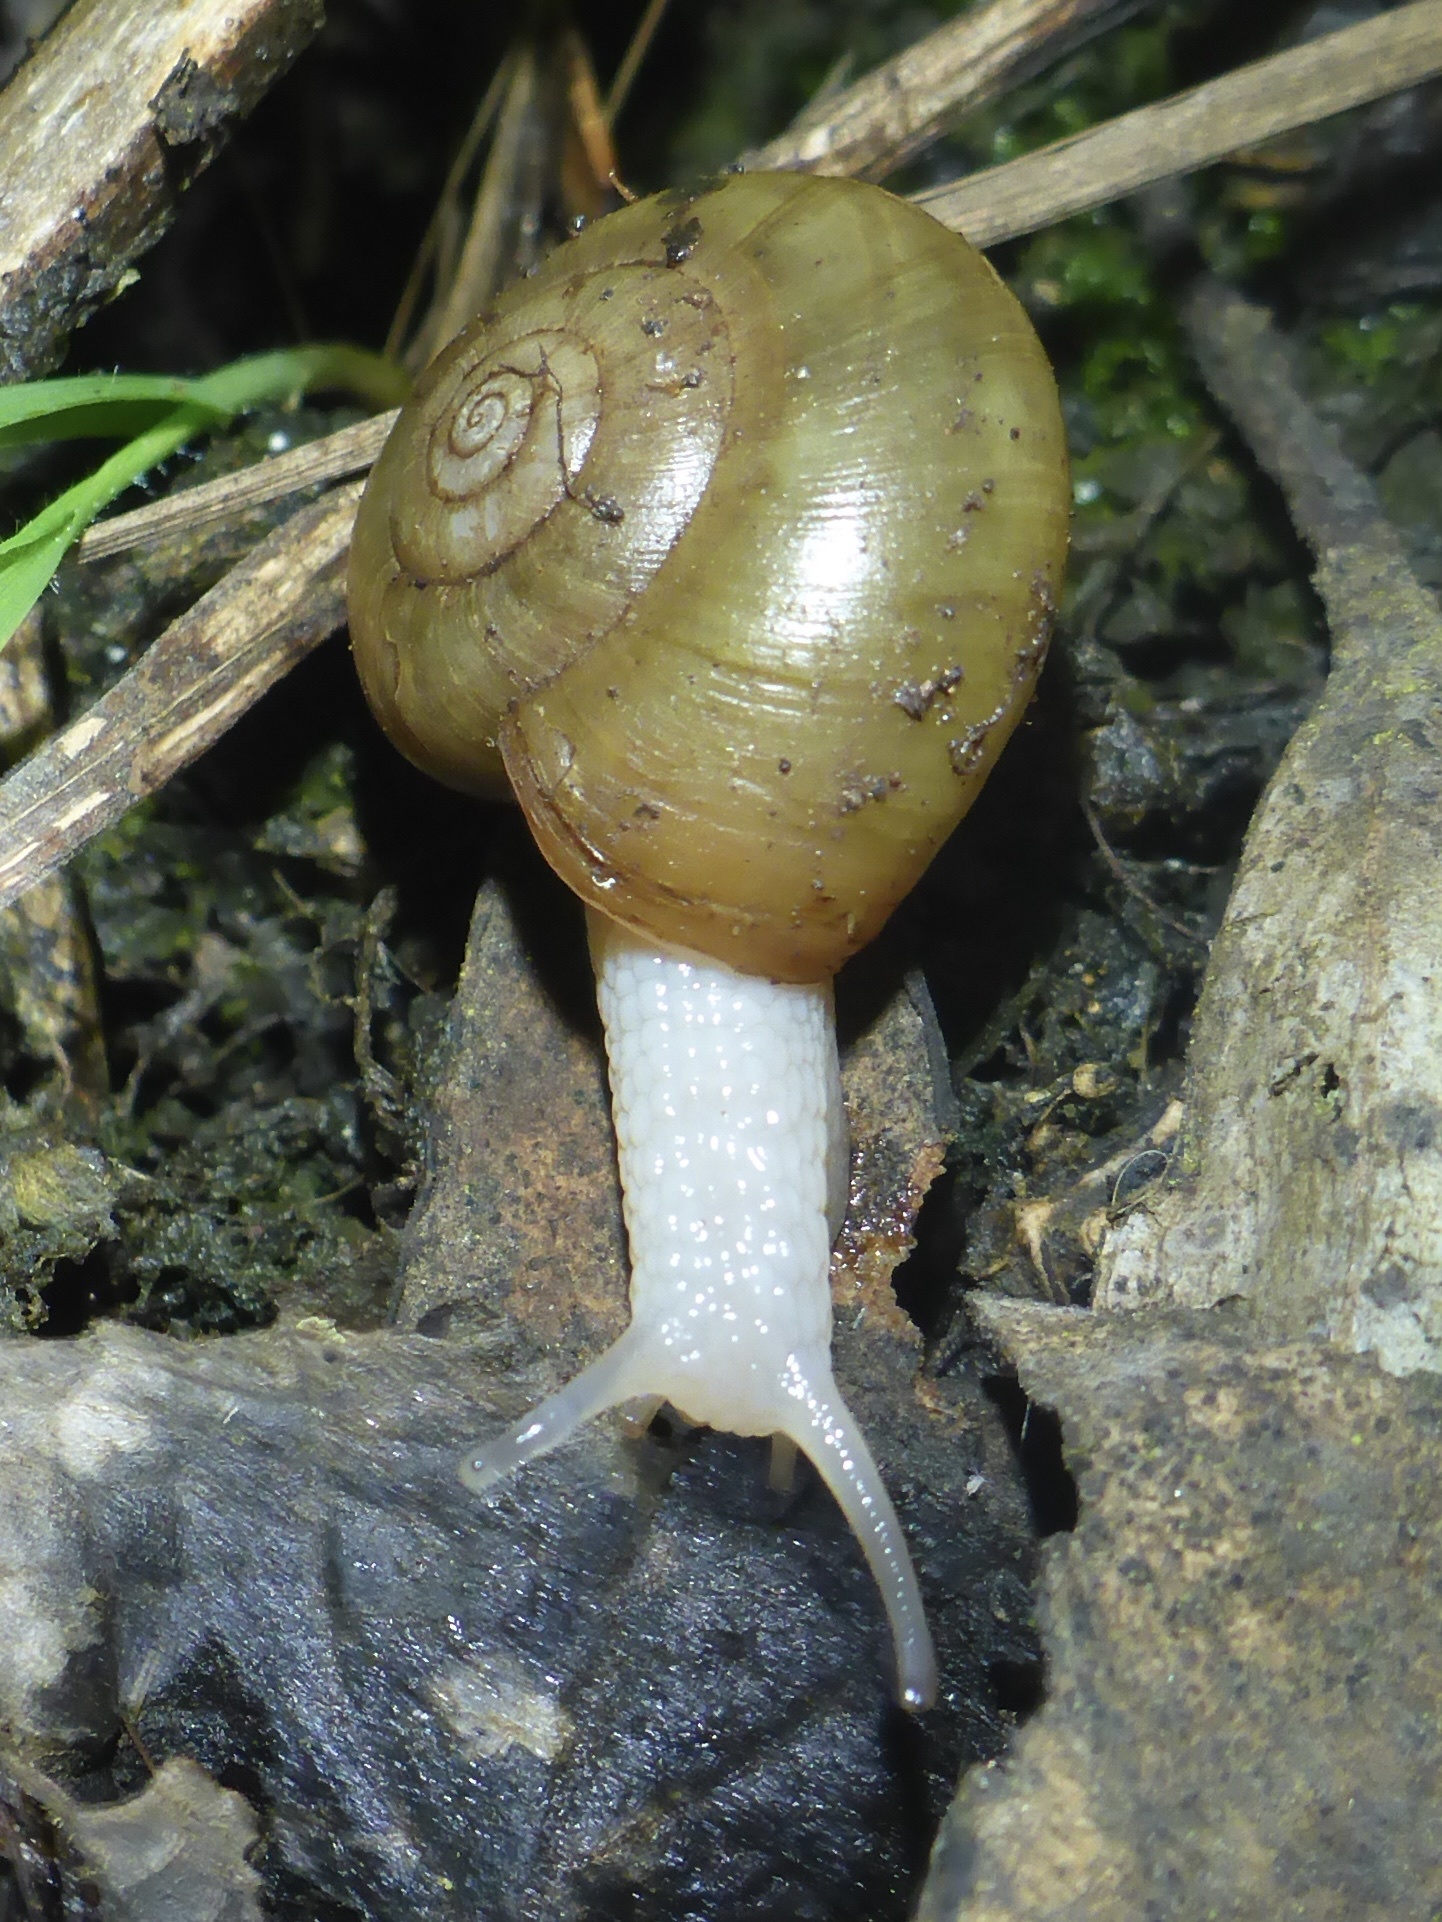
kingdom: Animalia
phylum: Mollusca
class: Gastropoda
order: Stylommatophora
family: Haplotrematidae
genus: Haplotrema
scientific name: Haplotrema minimum
